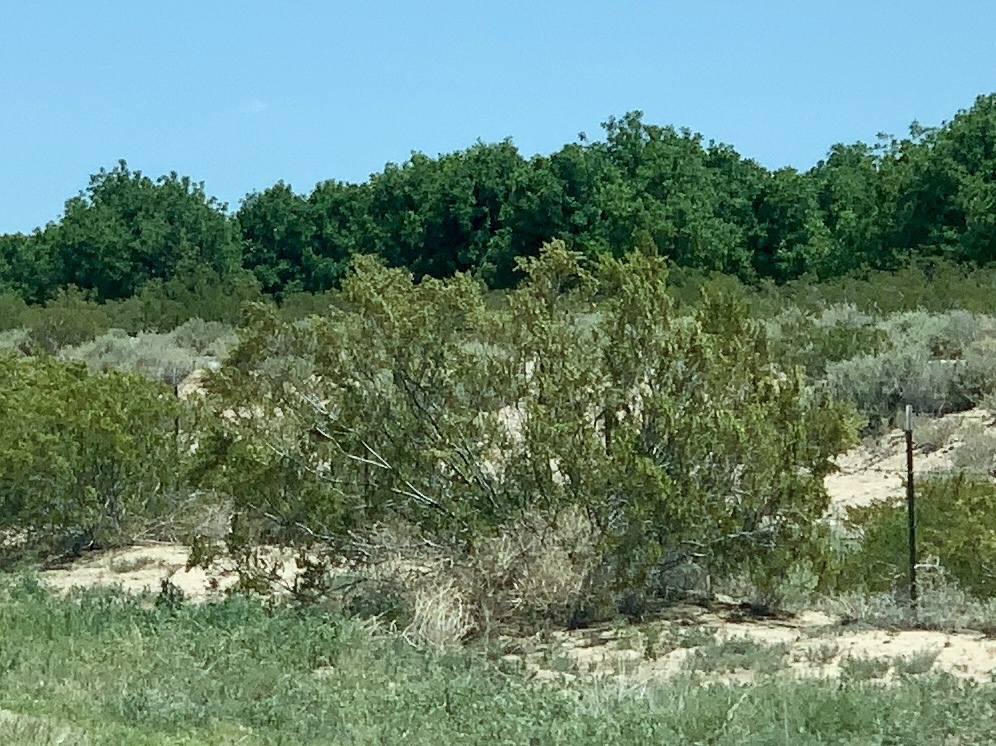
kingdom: Plantae
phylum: Tracheophyta
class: Magnoliopsida
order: Zygophyllales
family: Zygophyllaceae
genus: Larrea
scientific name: Larrea tridentata
